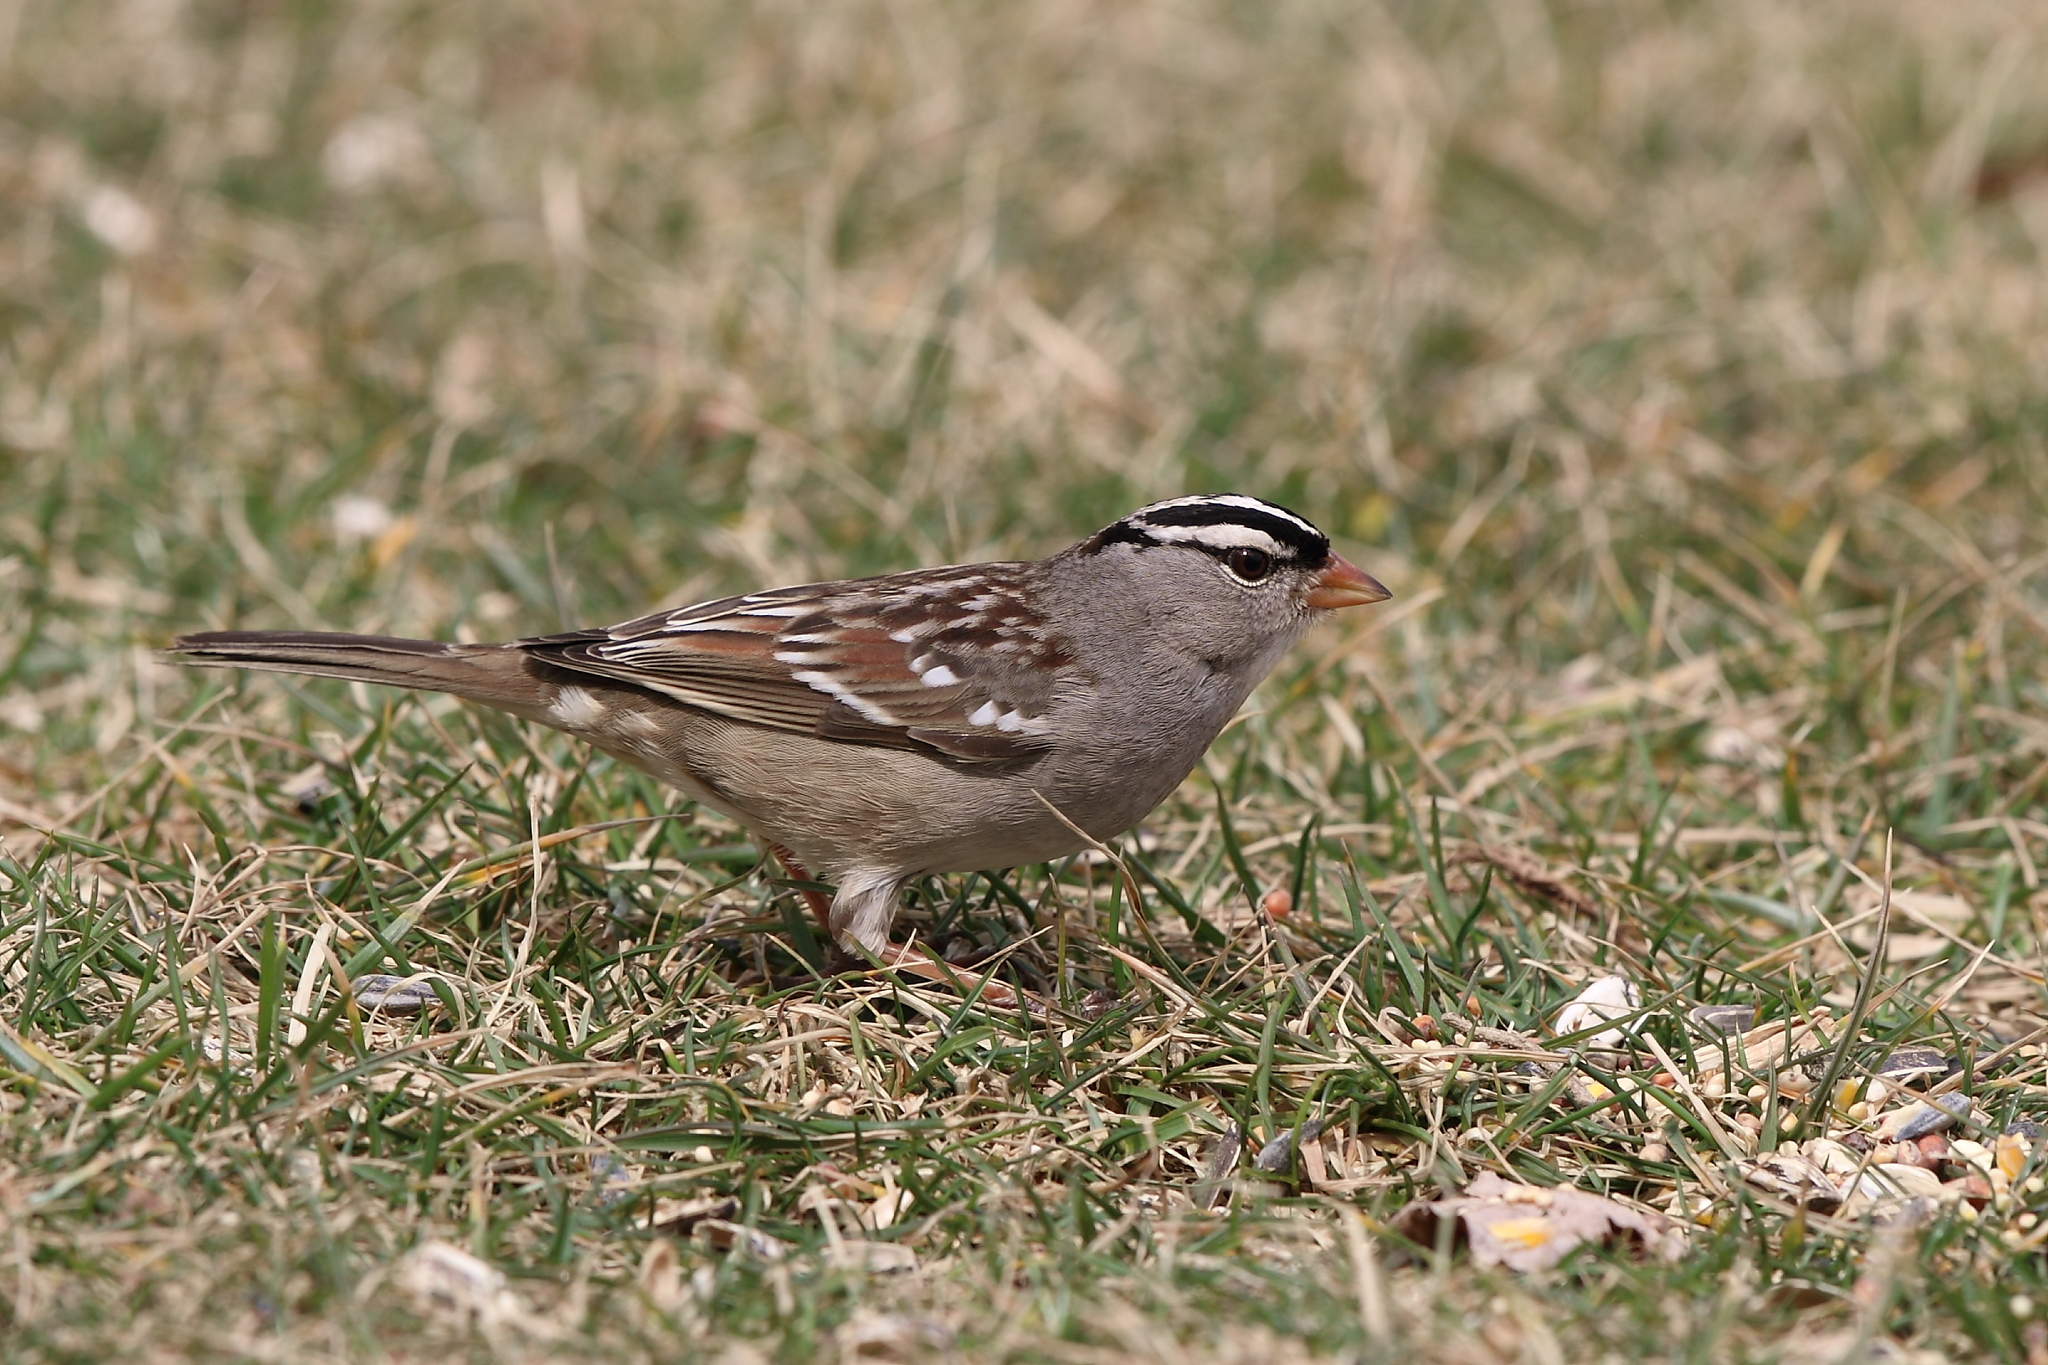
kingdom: Animalia
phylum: Chordata
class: Aves
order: Passeriformes
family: Passerellidae
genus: Zonotrichia
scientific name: Zonotrichia leucophrys
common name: White-crowned sparrow
